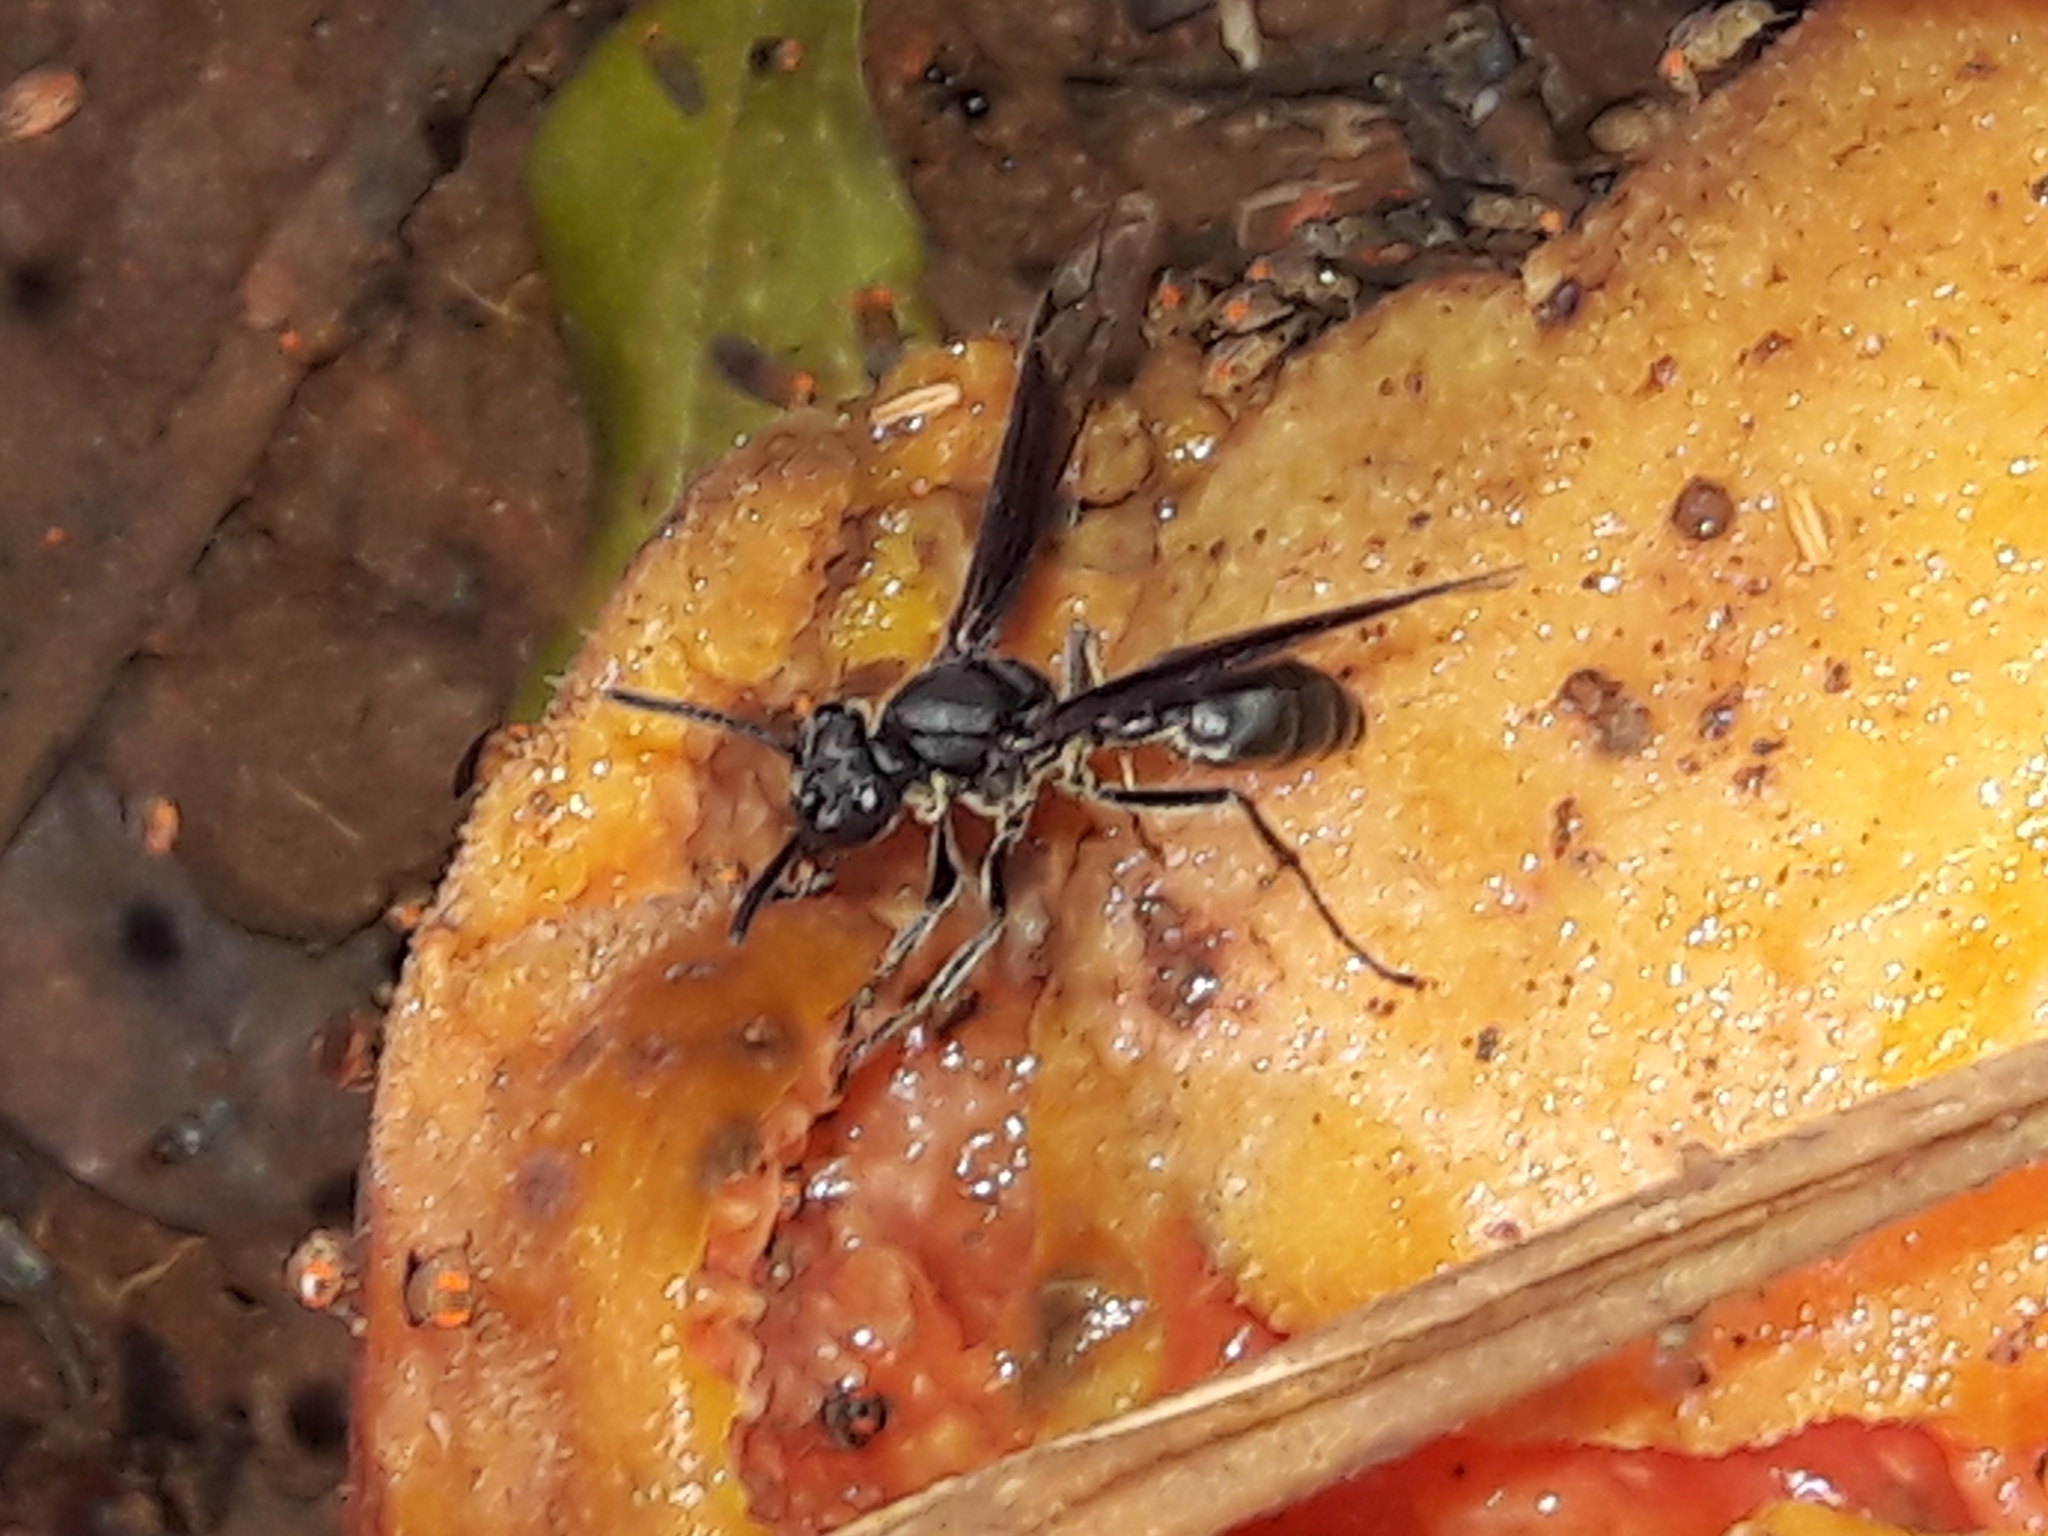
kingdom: Animalia
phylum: Arthropoda
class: Insecta
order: Hymenoptera
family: Eumenidae
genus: Polybia
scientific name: Polybia ignobilis
